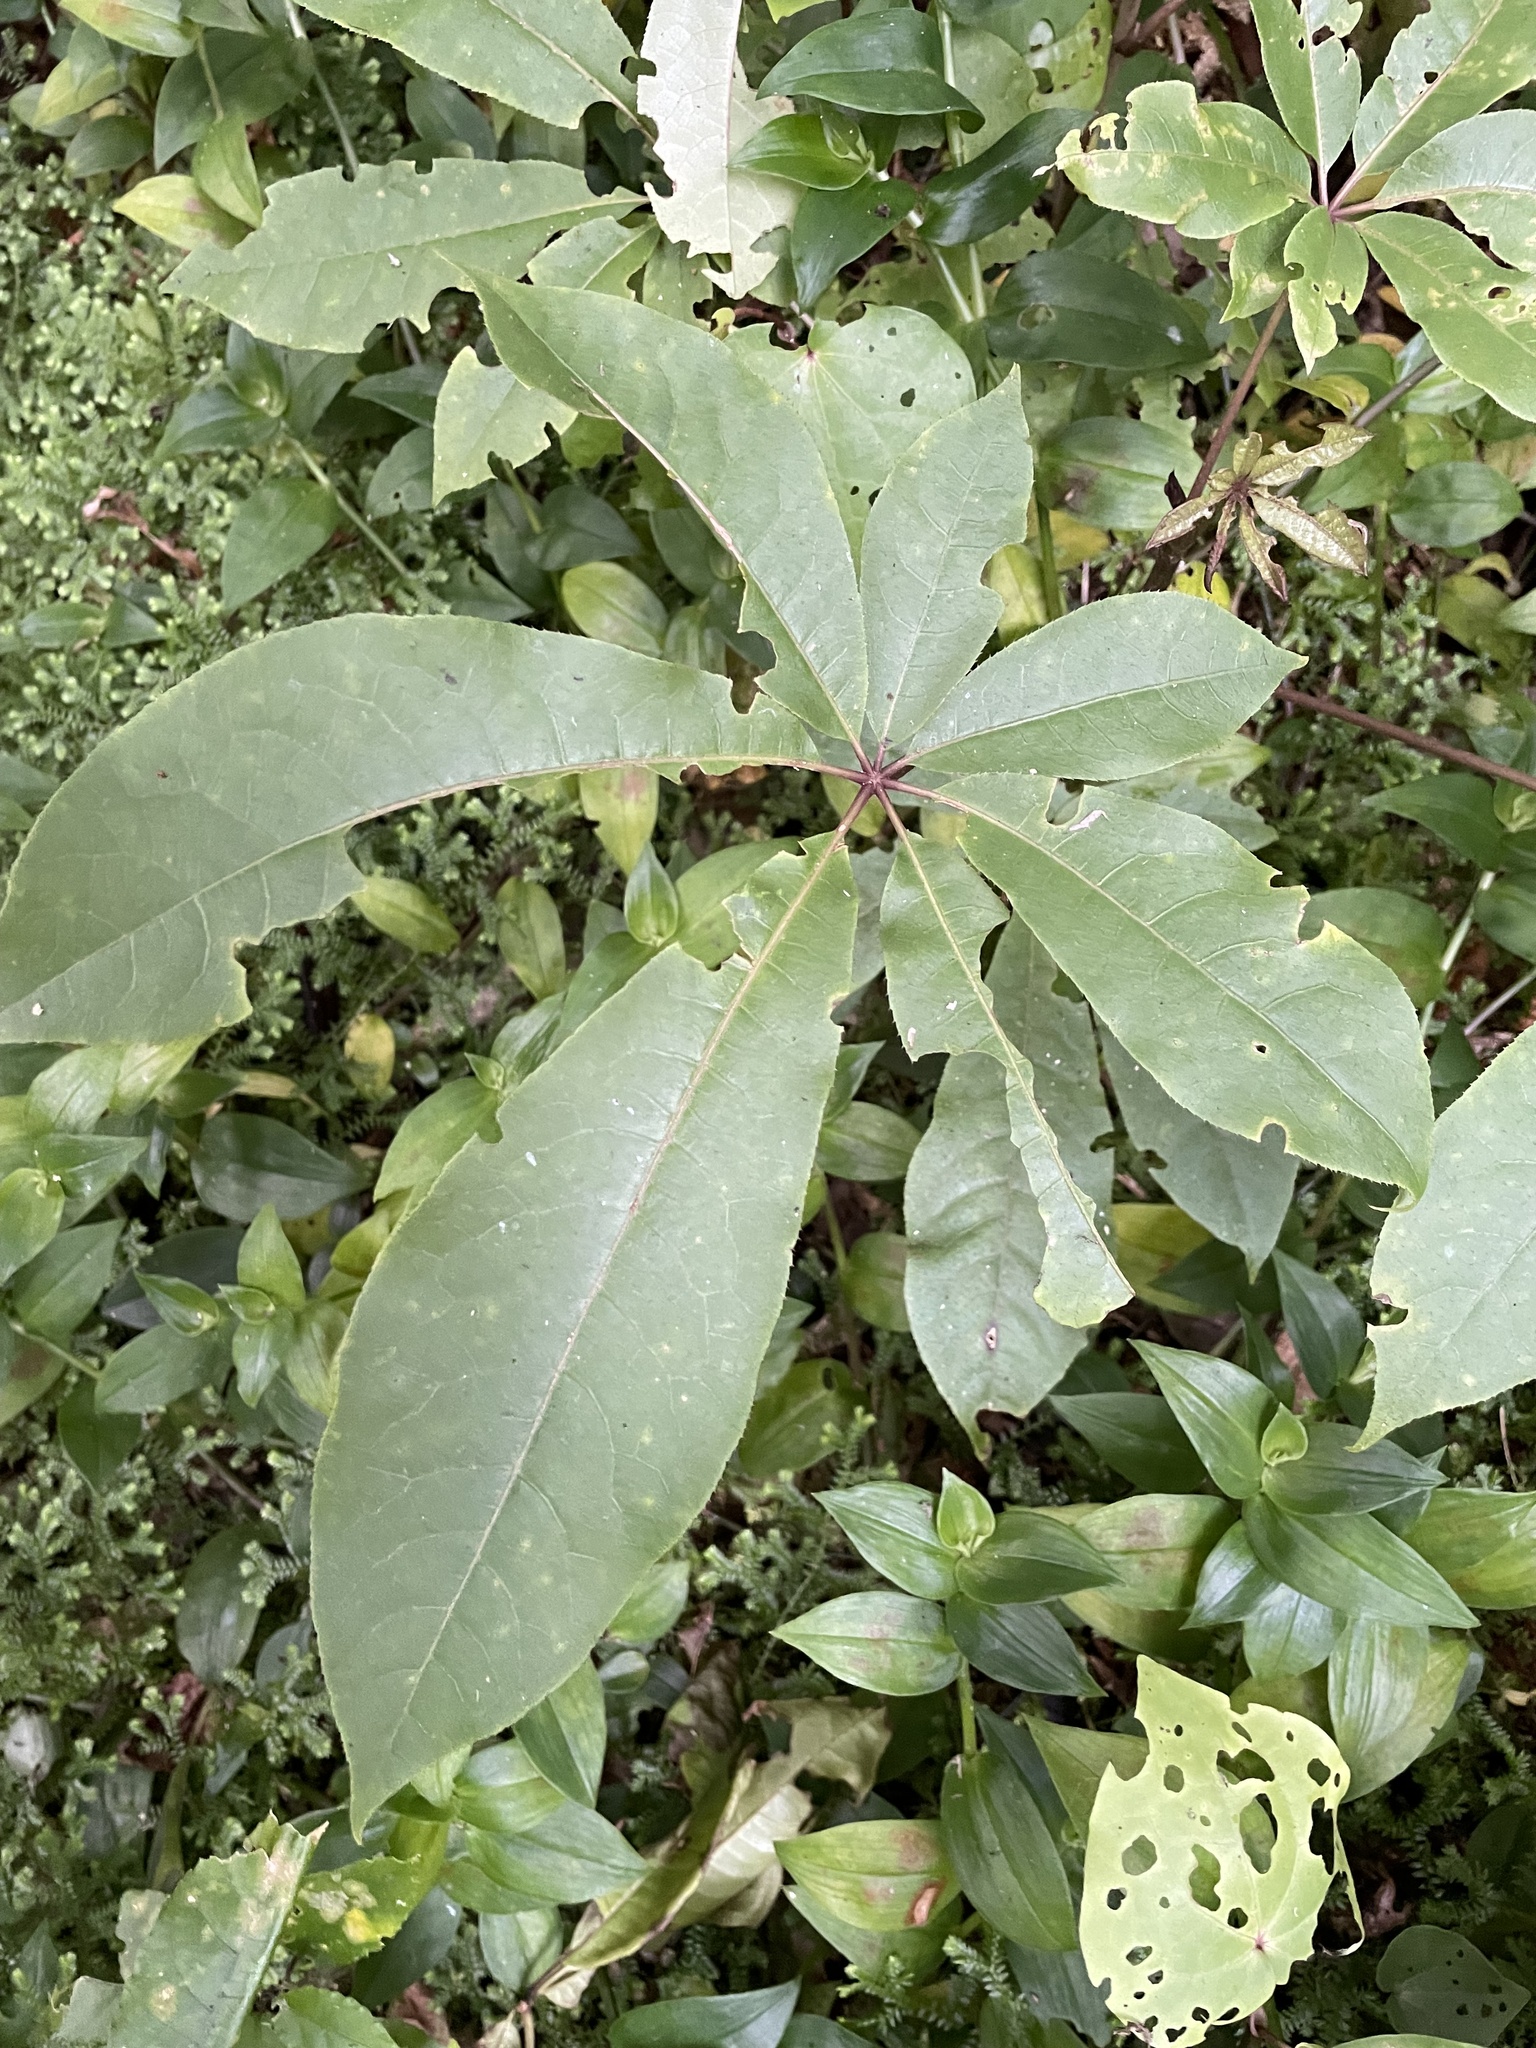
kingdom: Plantae
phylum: Tracheophyta
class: Magnoliopsida
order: Apiales
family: Araliaceae
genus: Schefflera
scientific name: Schefflera digitata
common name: Pate
